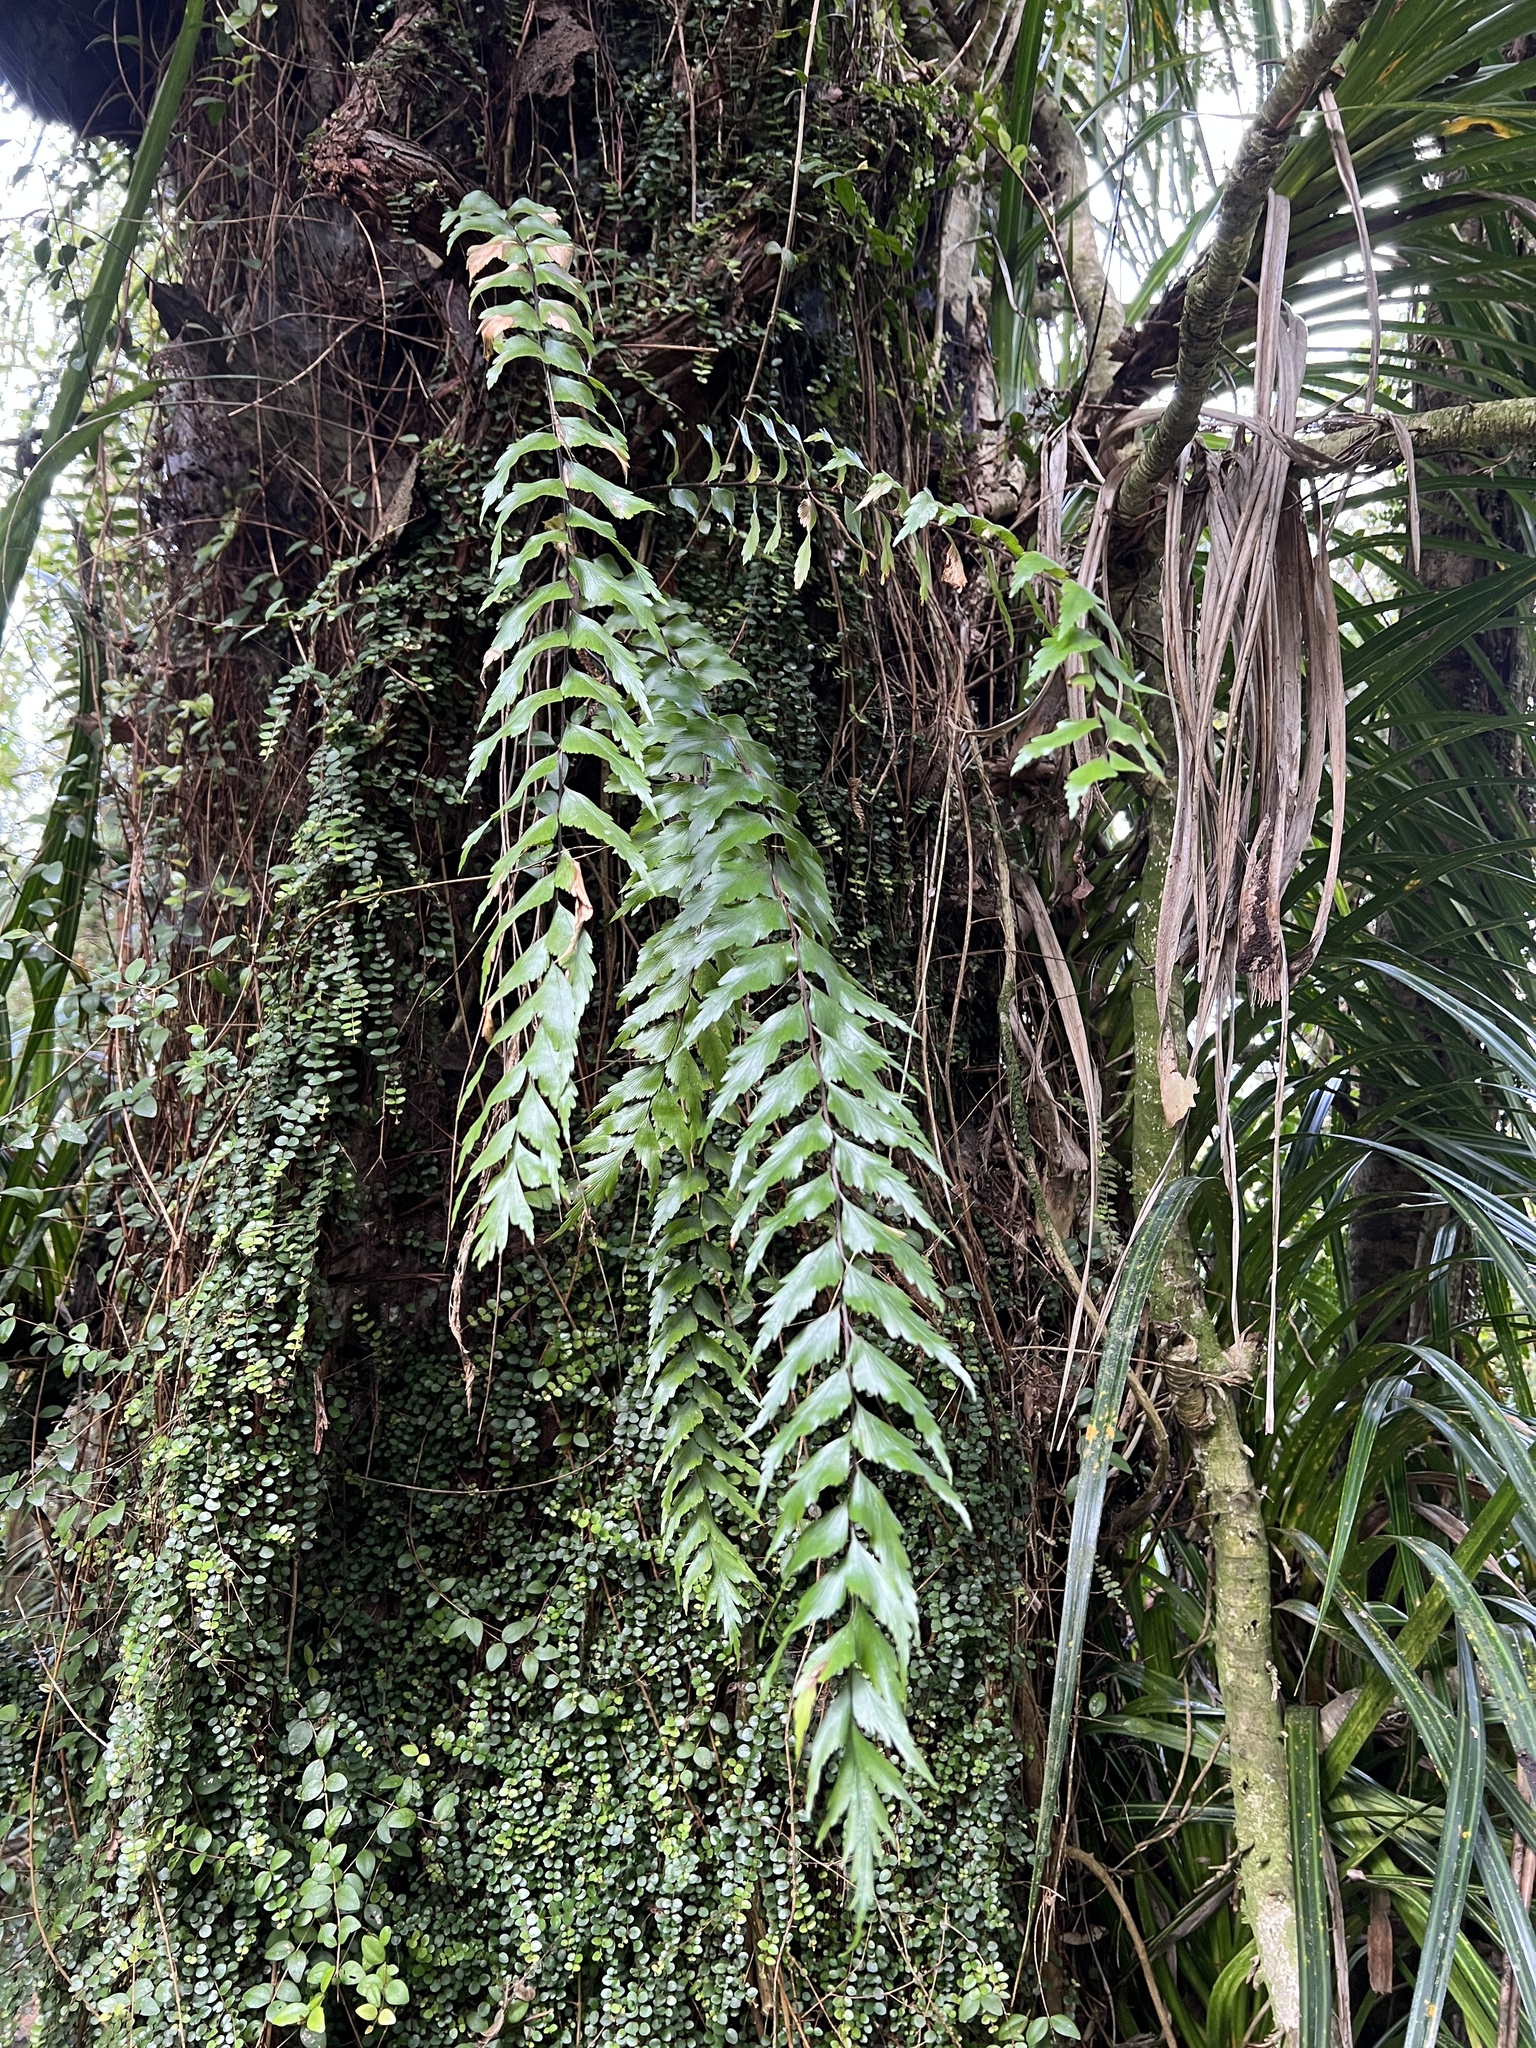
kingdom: Plantae
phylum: Tracheophyta
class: Polypodiopsida
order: Polypodiales
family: Aspleniaceae
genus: Asplenium
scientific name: Asplenium polyodon
